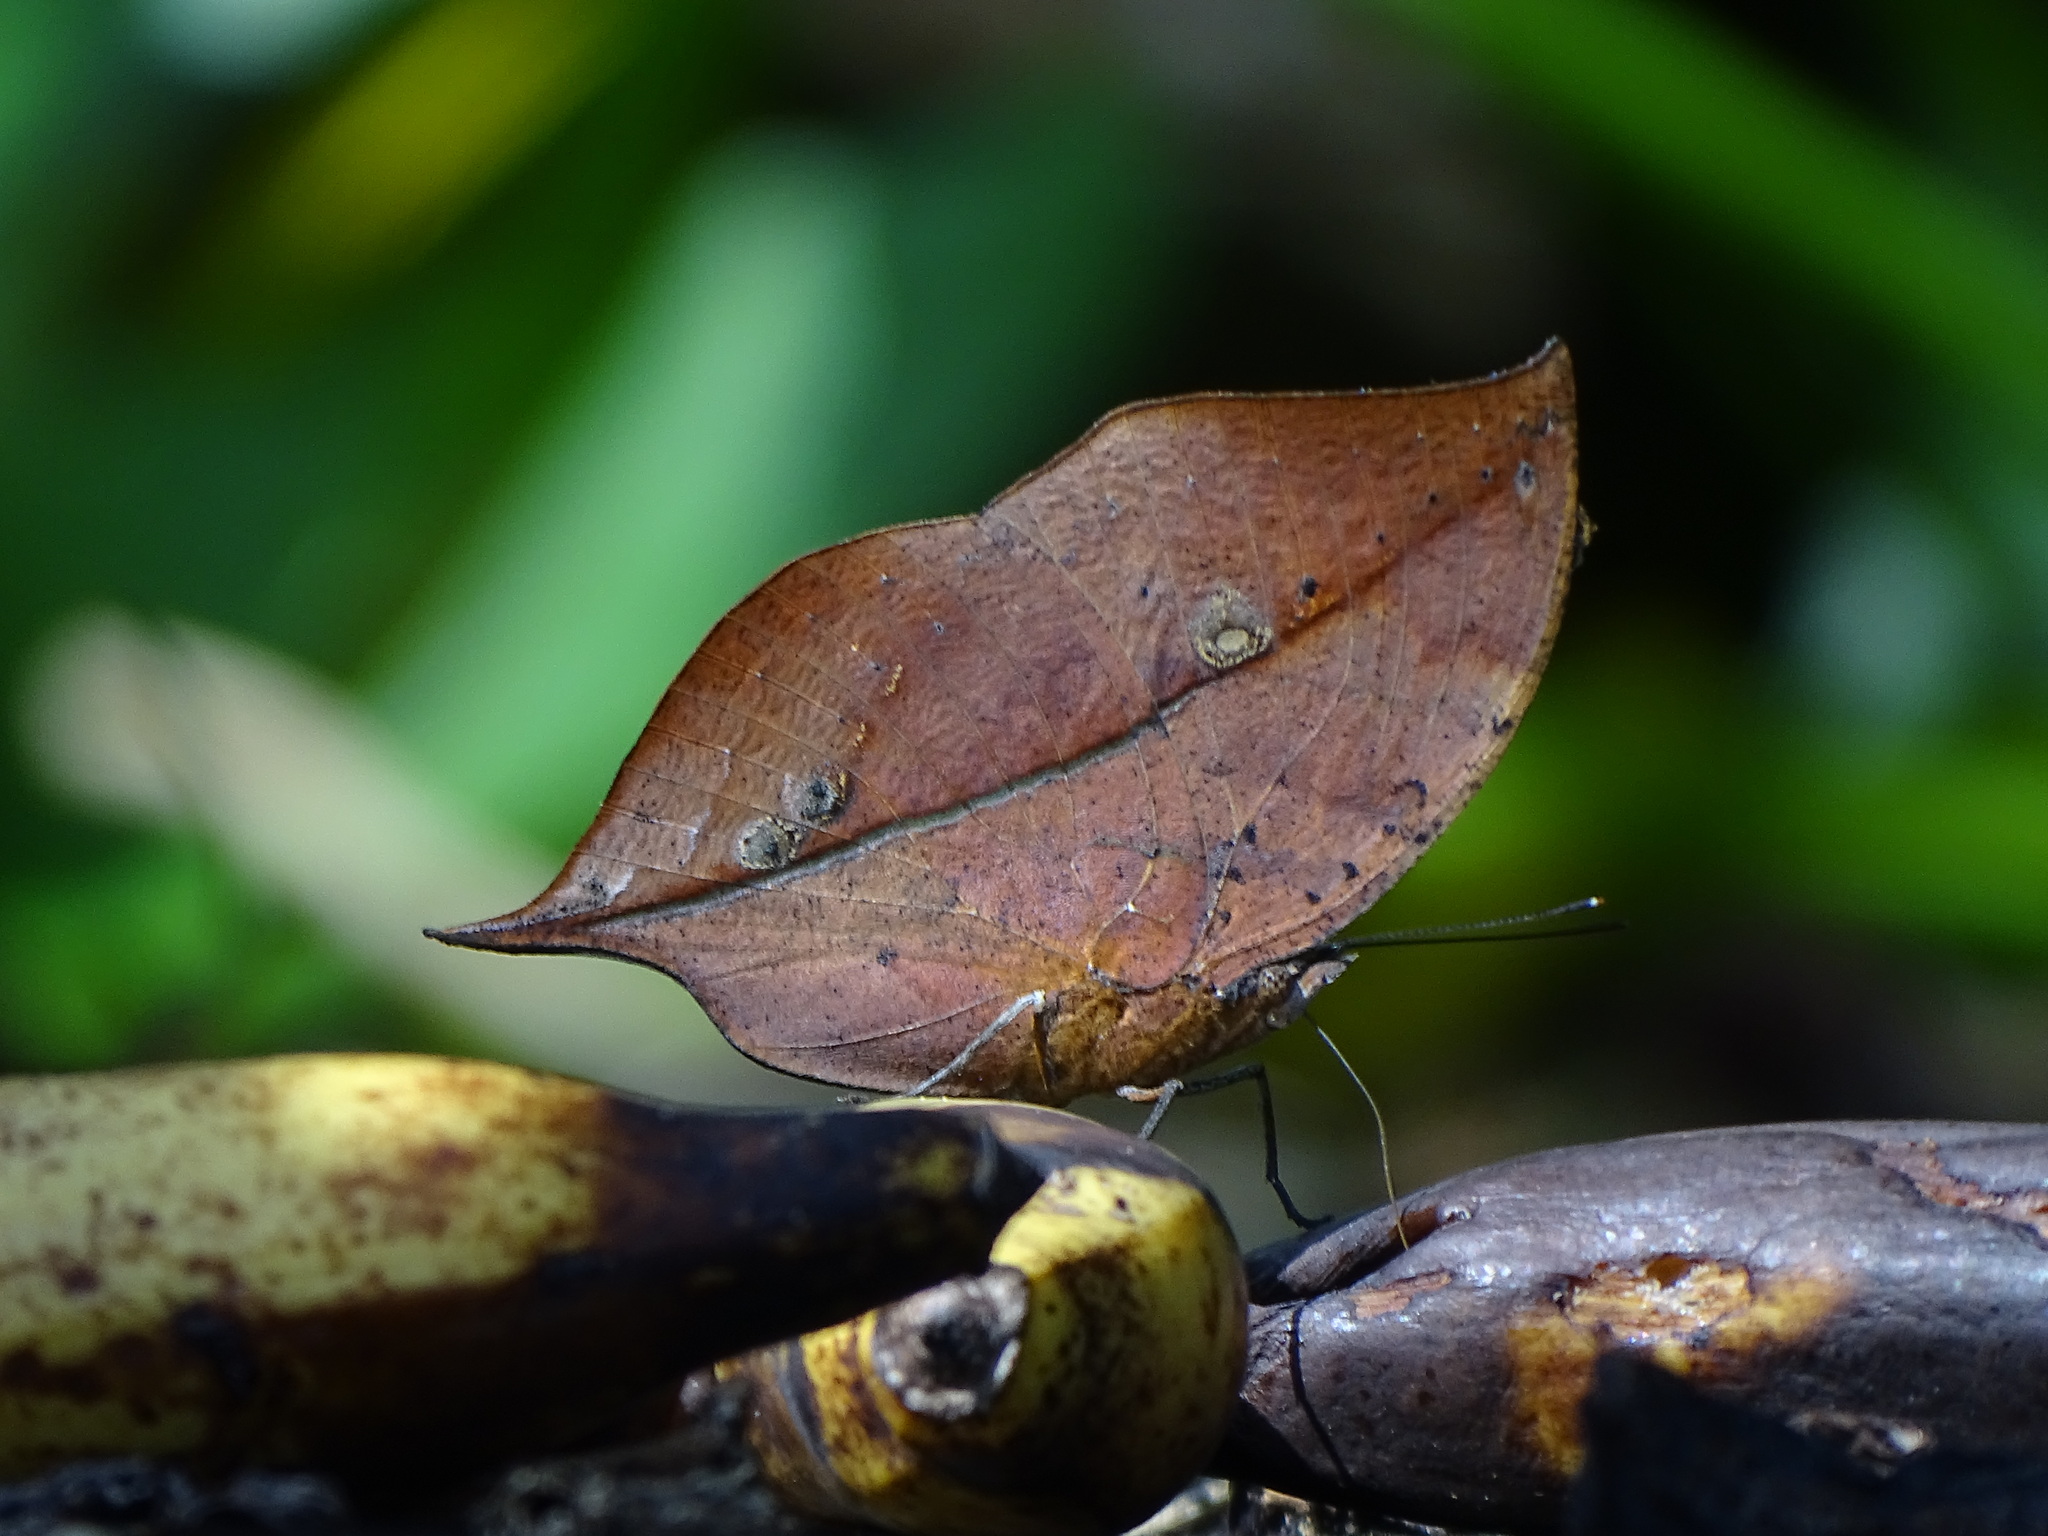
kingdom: Animalia
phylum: Arthropoda
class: Insecta
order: Lepidoptera
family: Nymphalidae
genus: Kallima
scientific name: Kallima inachus
